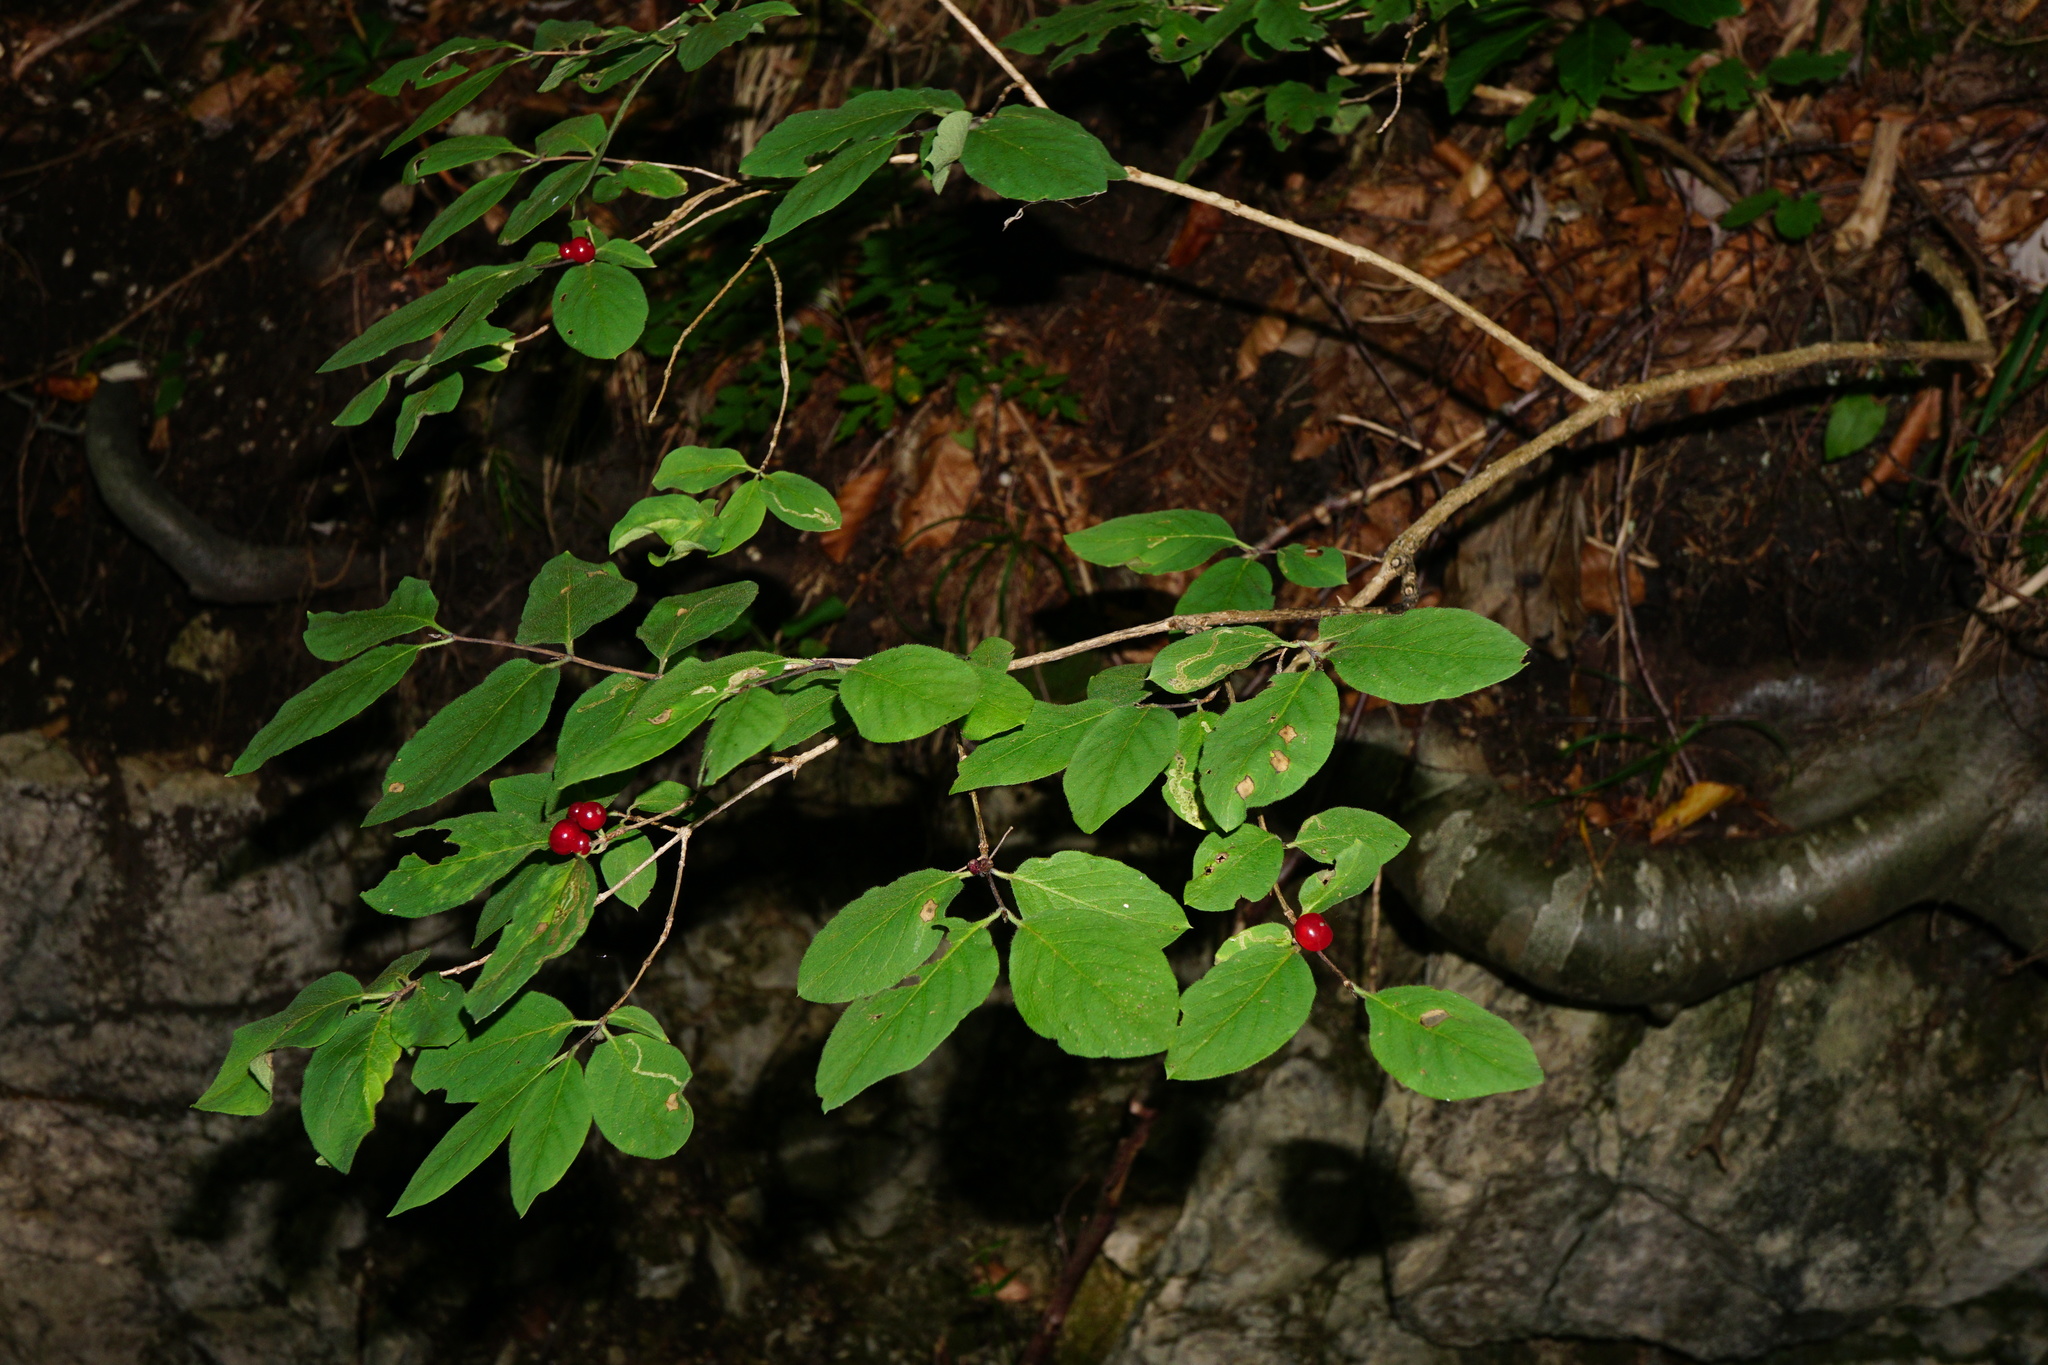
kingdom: Plantae
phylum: Tracheophyta
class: Magnoliopsida
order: Dipsacales
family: Caprifoliaceae
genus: Lonicera
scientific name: Lonicera xylosteum
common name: Fly honeysuckle
